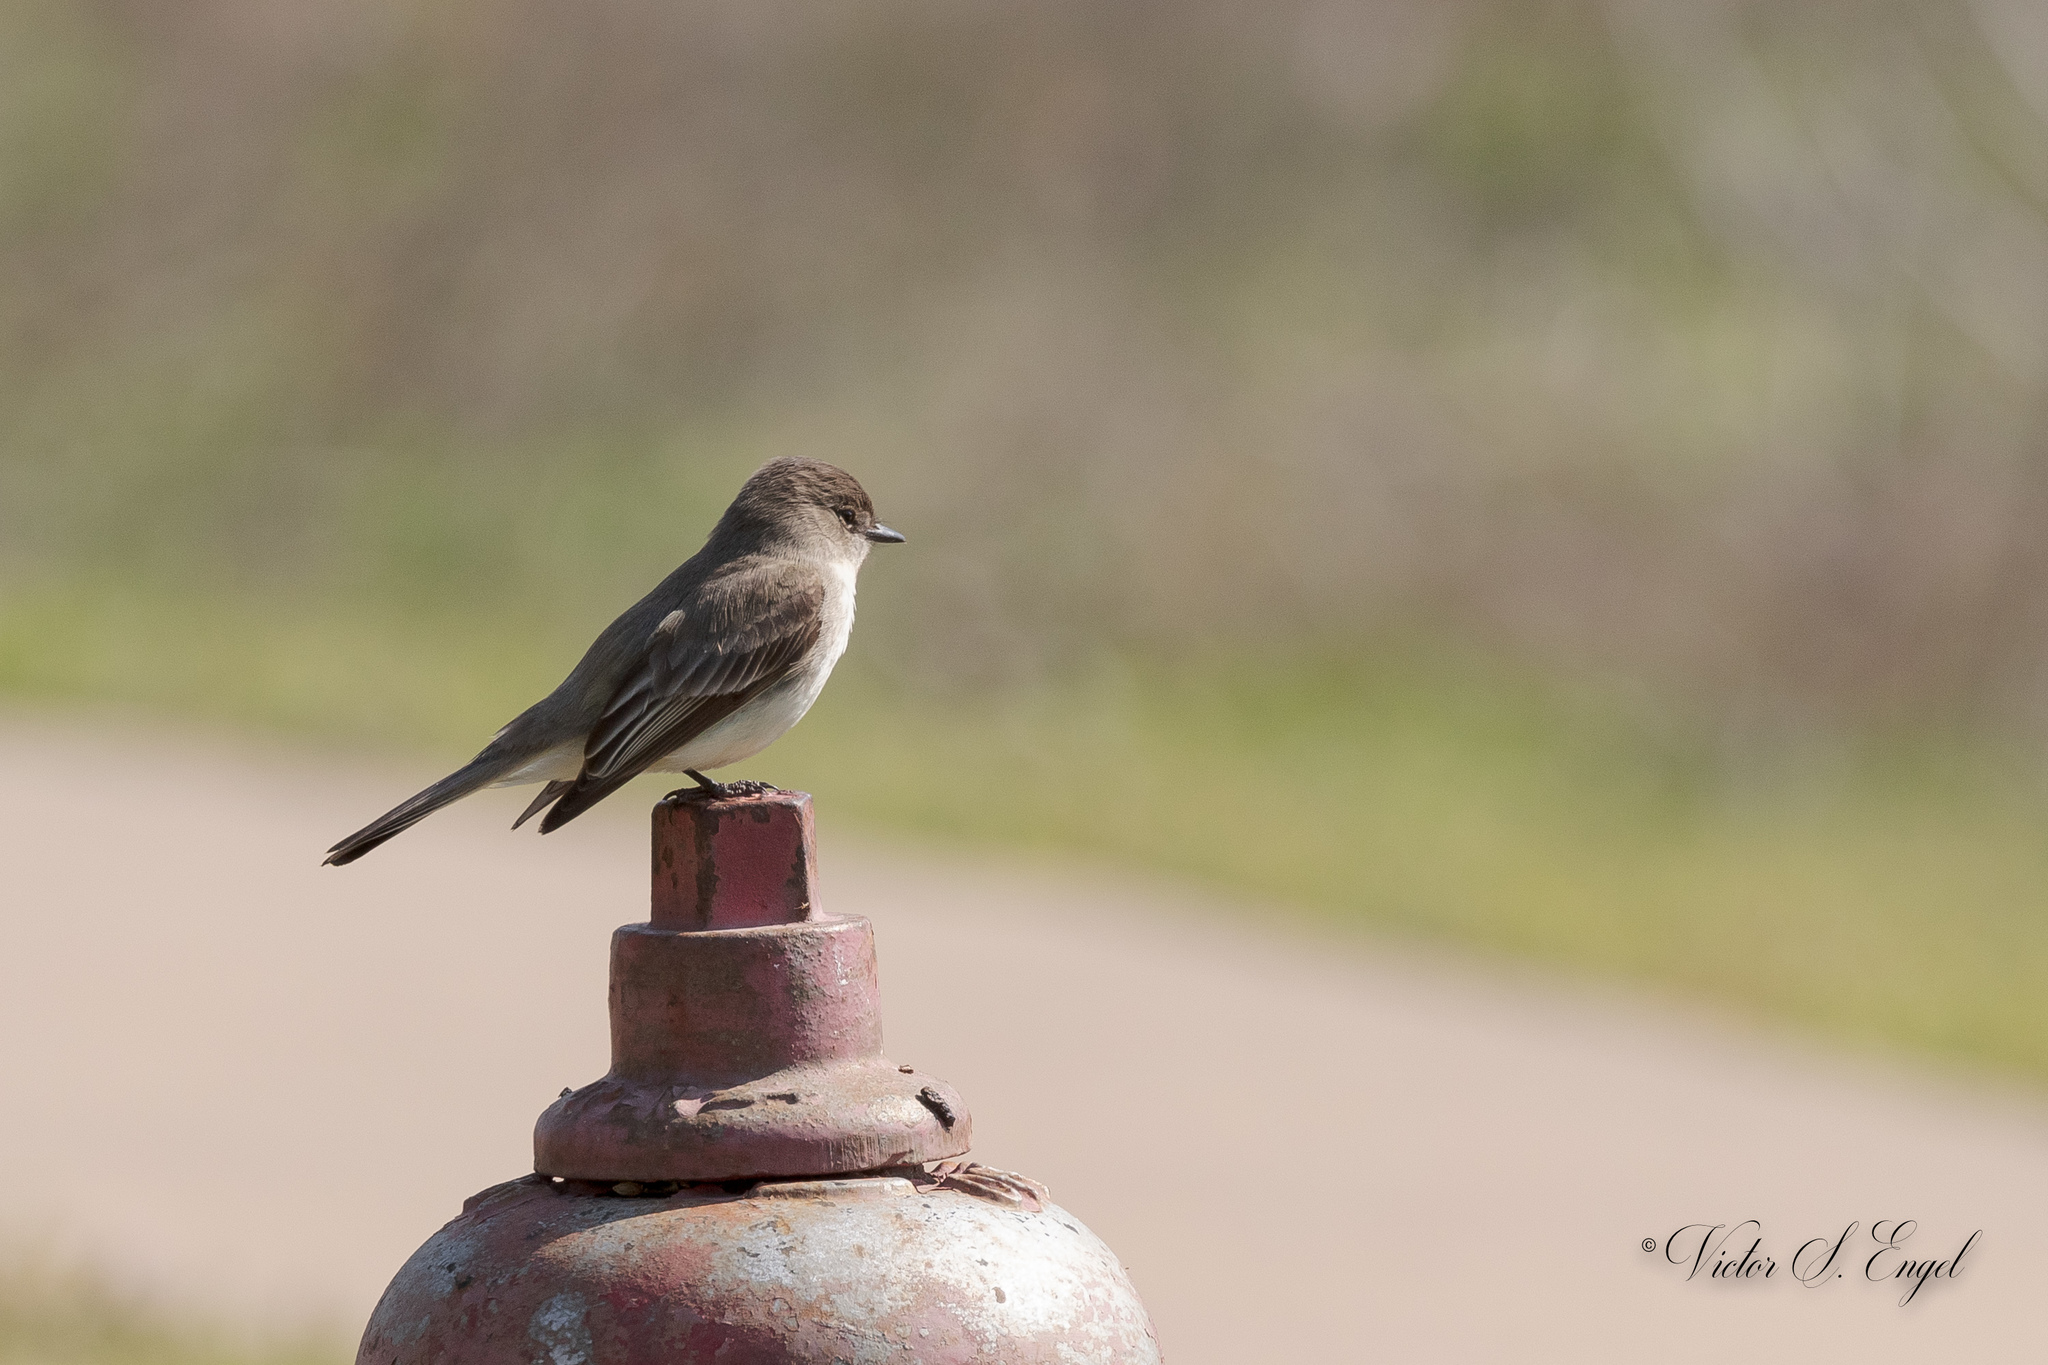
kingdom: Animalia
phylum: Chordata
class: Aves
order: Passeriformes
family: Tyrannidae
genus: Sayornis
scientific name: Sayornis phoebe
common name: Eastern phoebe
